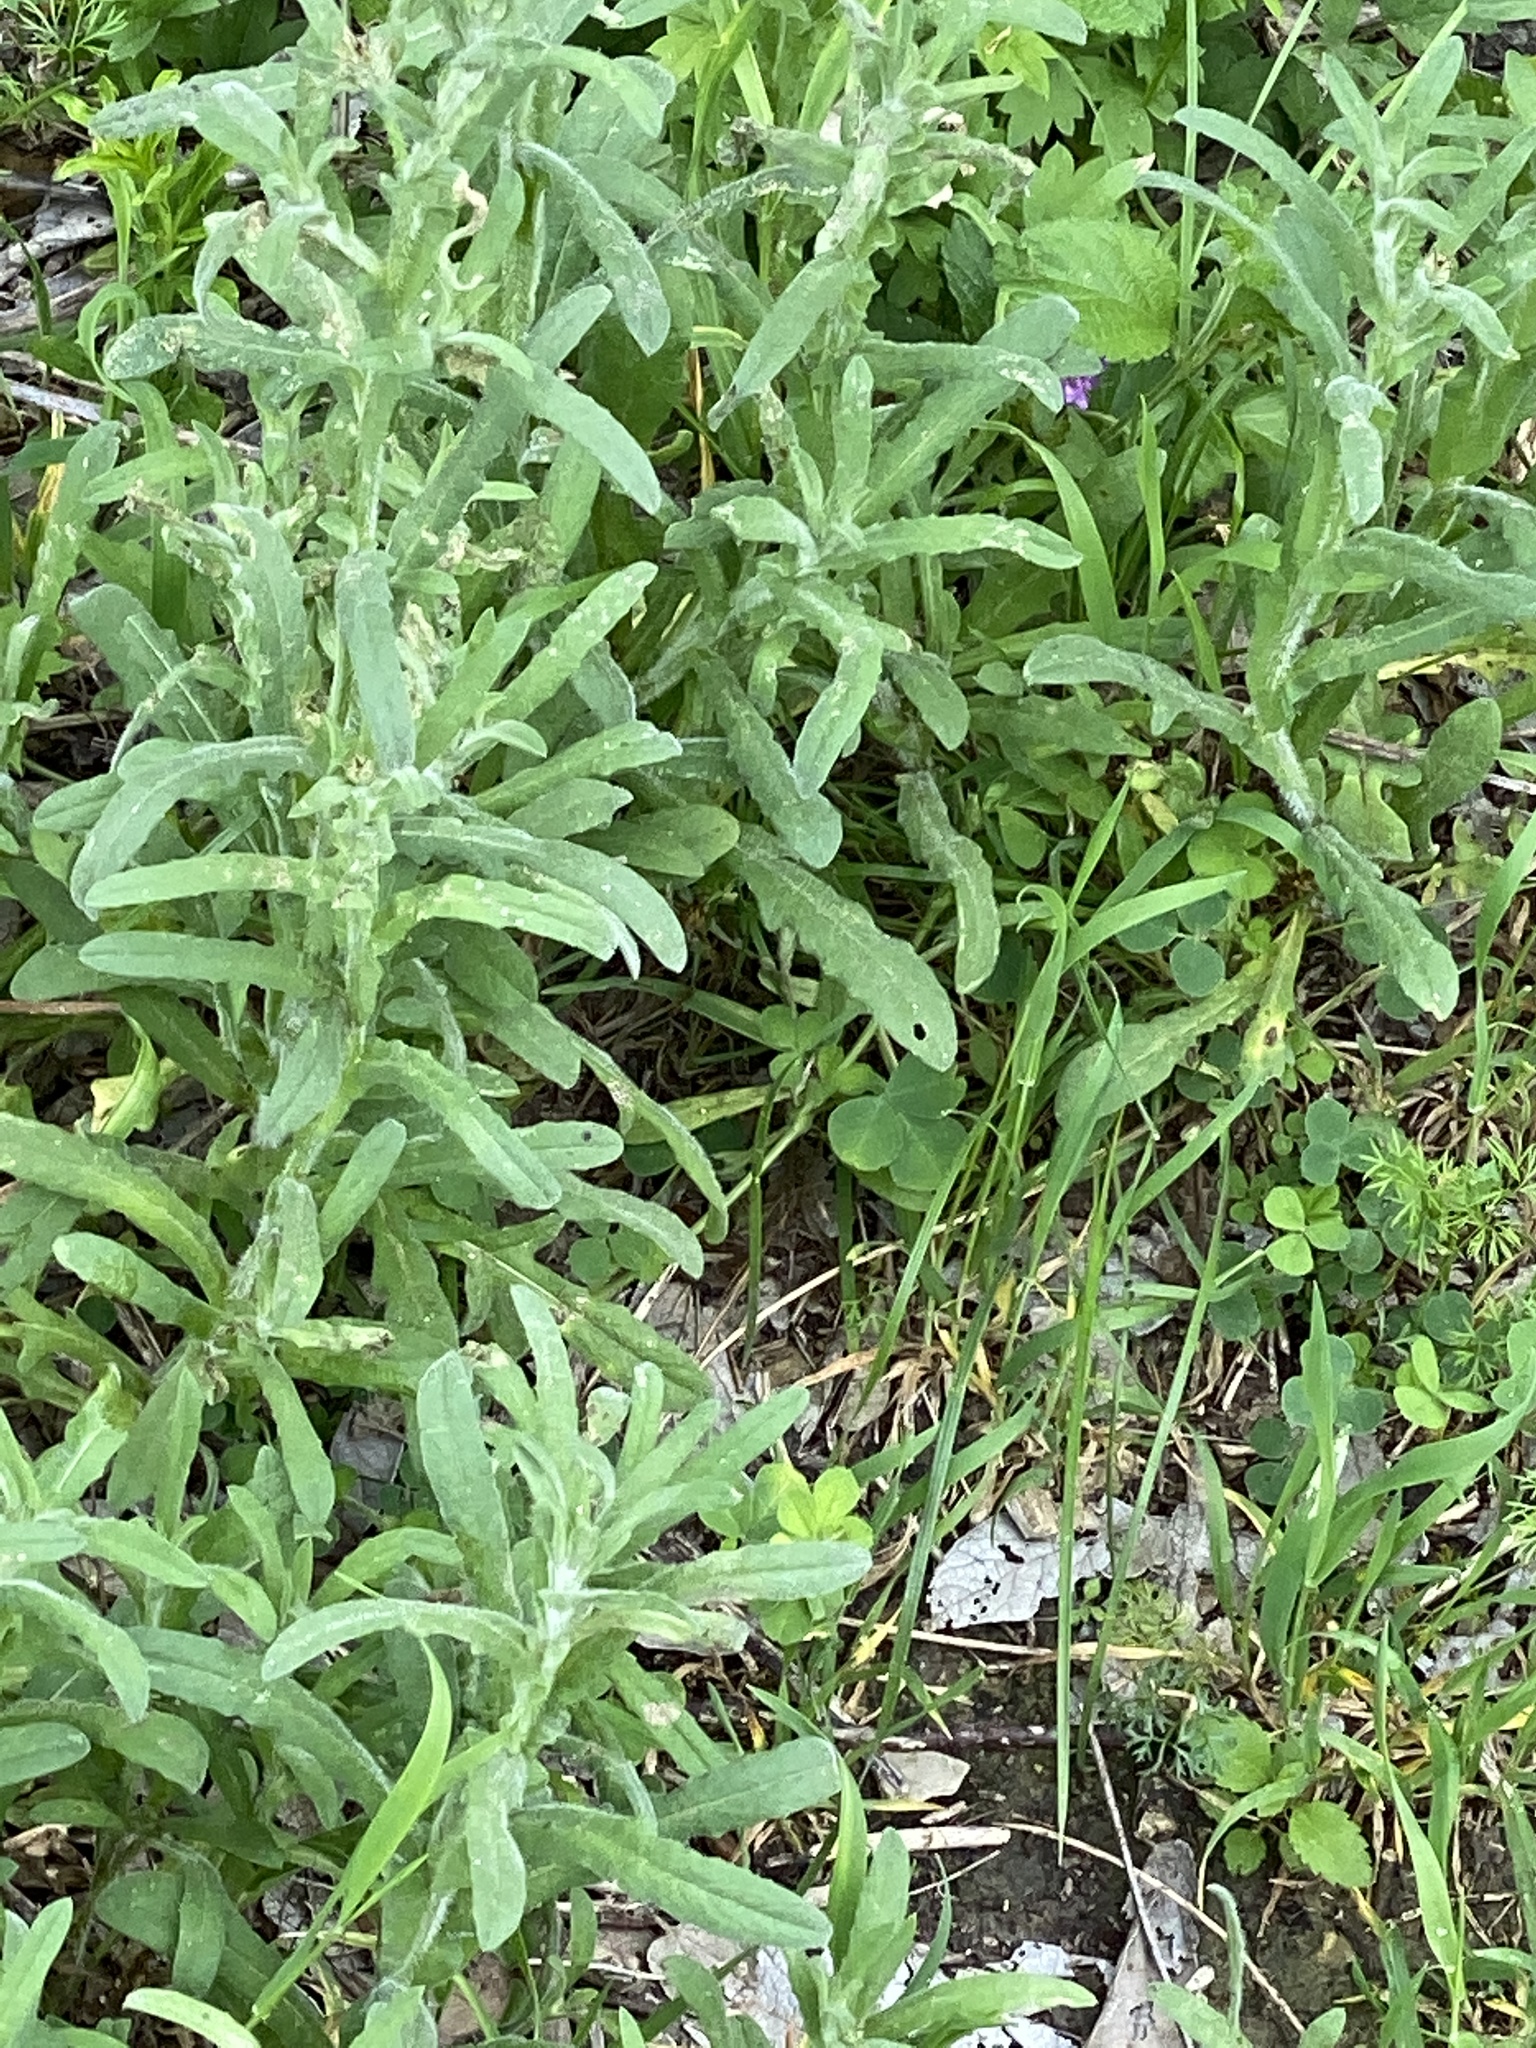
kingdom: Plantae
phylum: Tracheophyta
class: Magnoliopsida
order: Asterales
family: Asteraceae
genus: Centaurea
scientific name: Centaurea melitensis
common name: Maltese star-thistle
